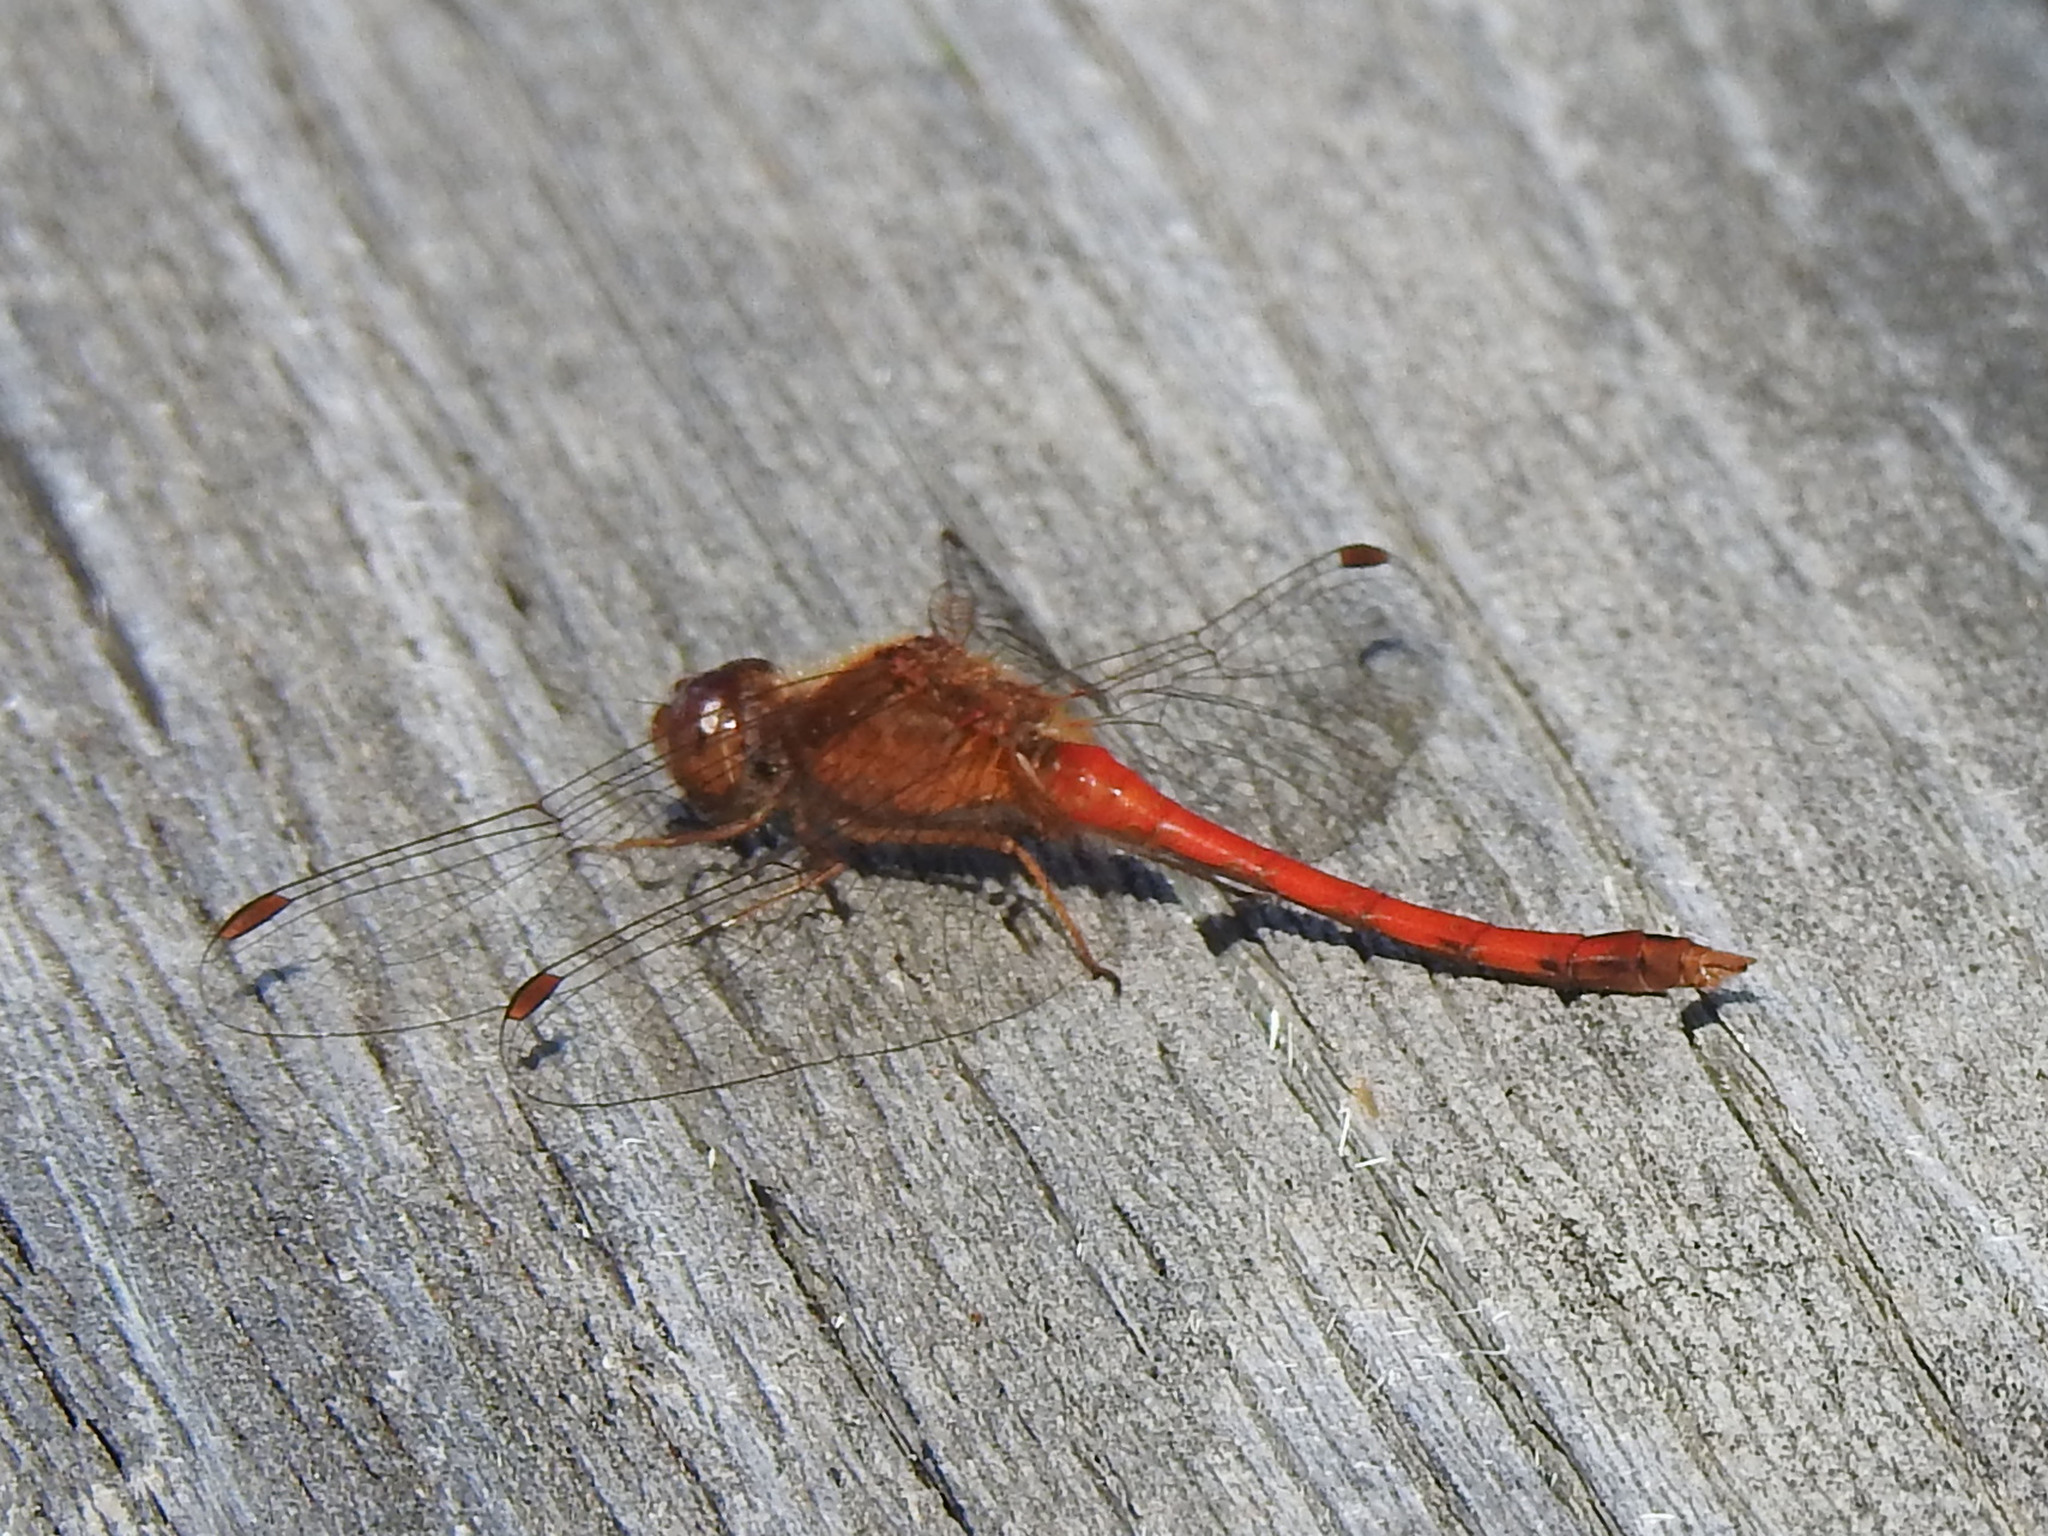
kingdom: Animalia
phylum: Arthropoda
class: Insecta
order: Odonata
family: Libellulidae
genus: Sympetrum
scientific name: Sympetrum vicinum
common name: Autumn meadowhawk
